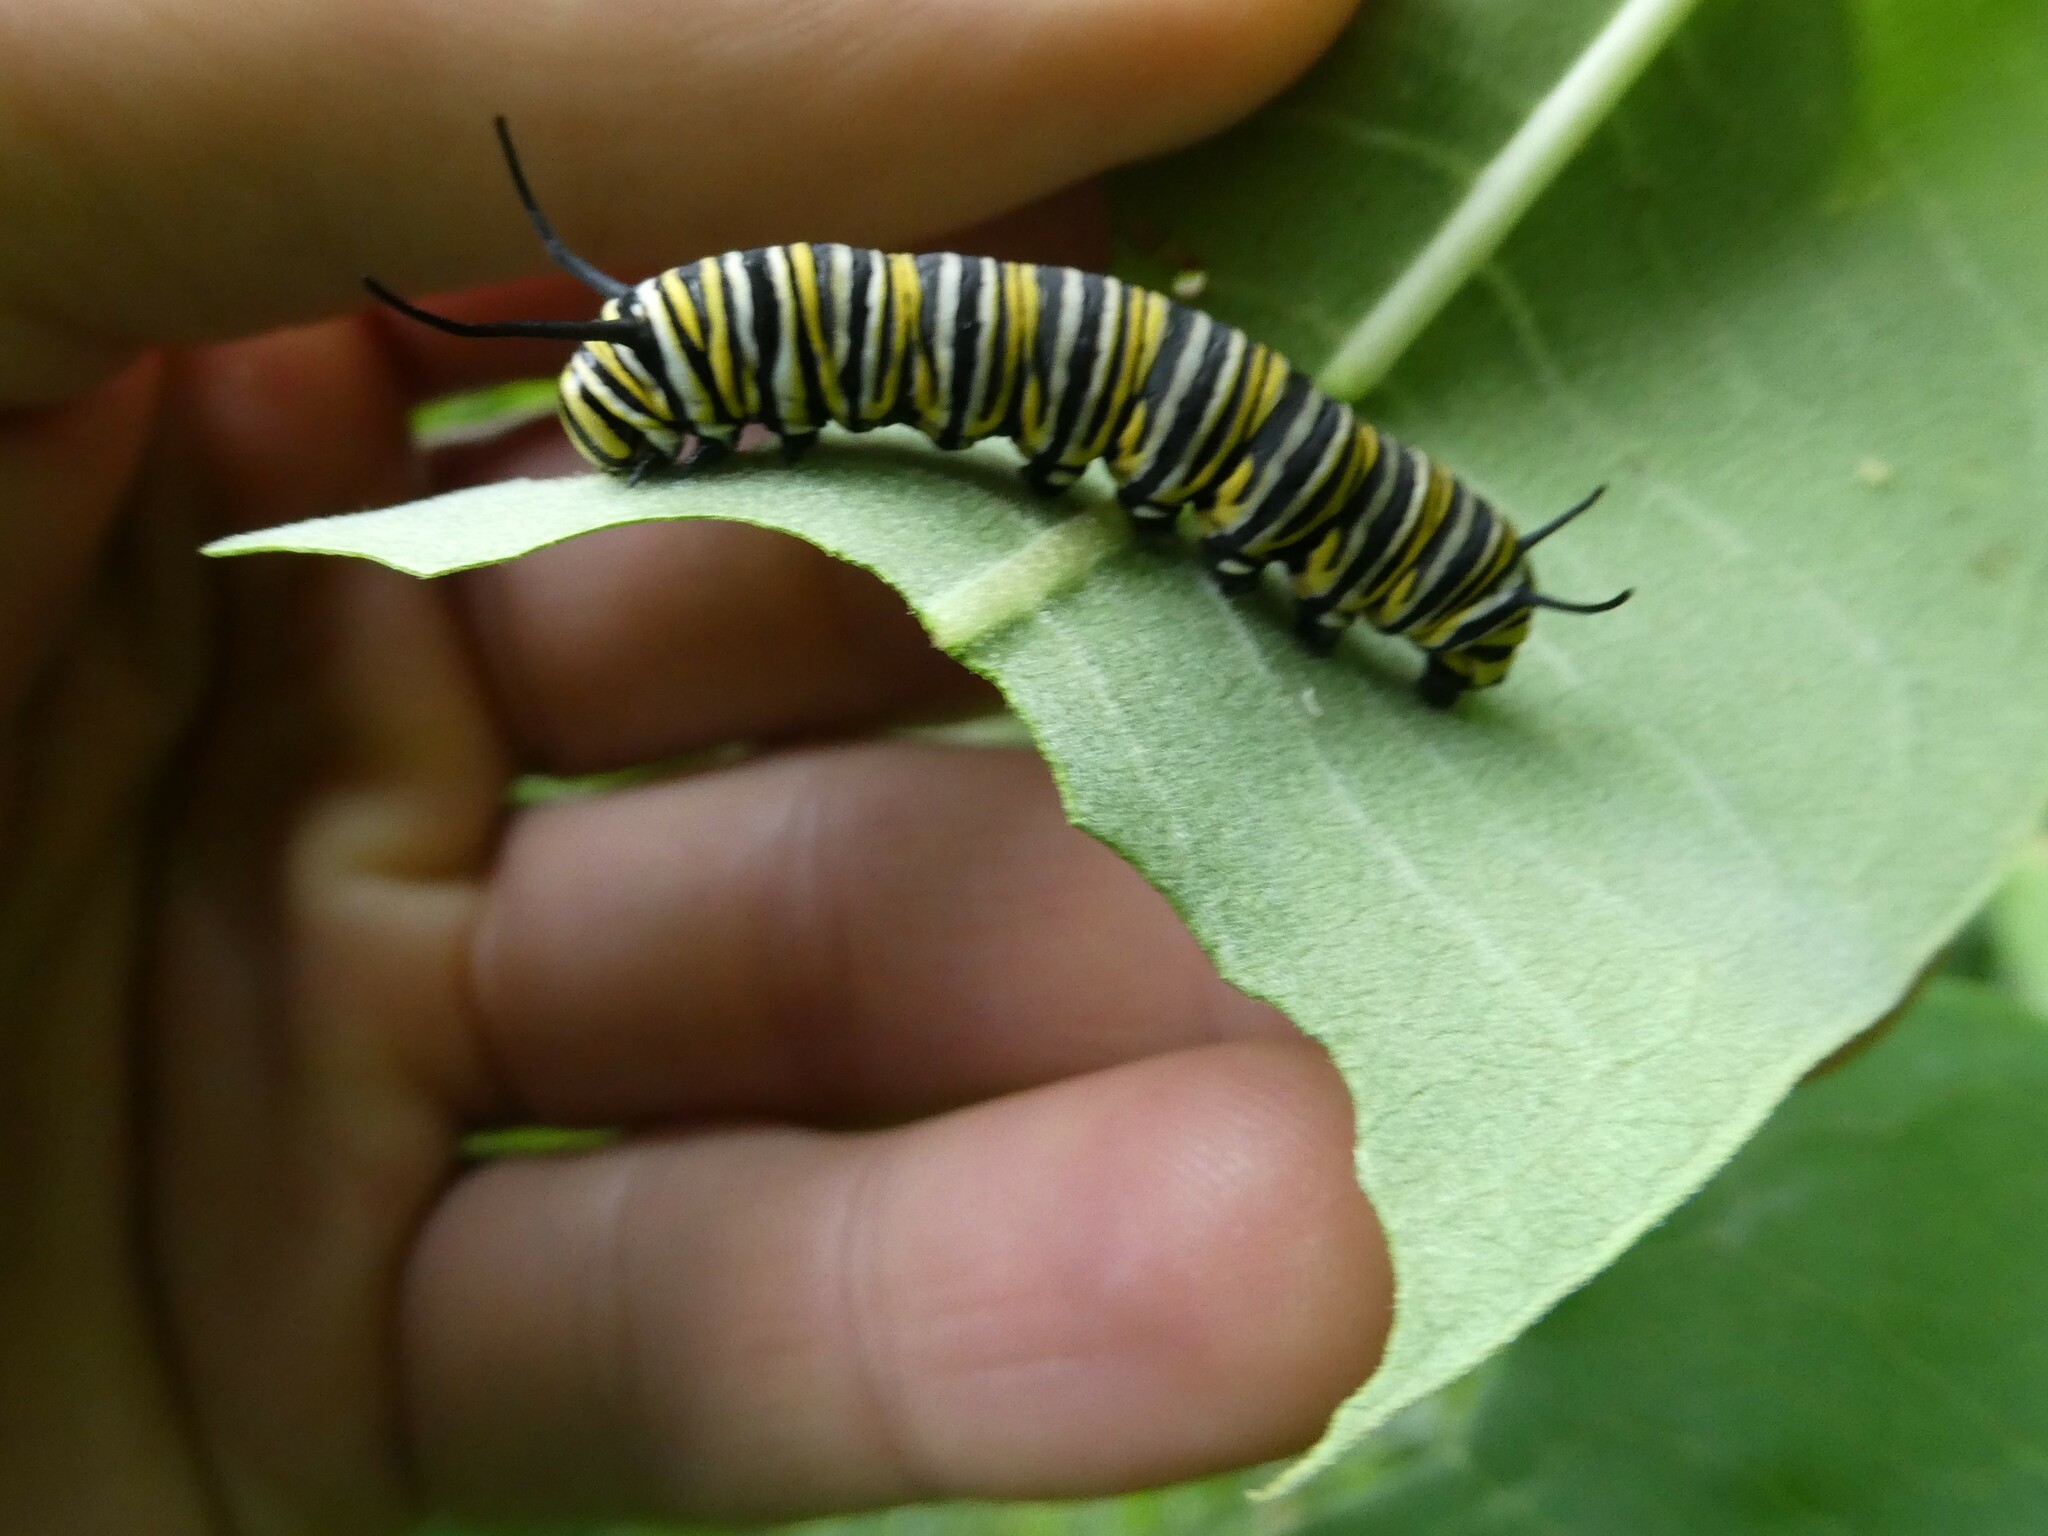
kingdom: Animalia
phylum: Arthropoda
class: Insecta
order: Lepidoptera
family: Nymphalidae
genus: Danaus
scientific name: Danaus plexippus
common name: Monarch
